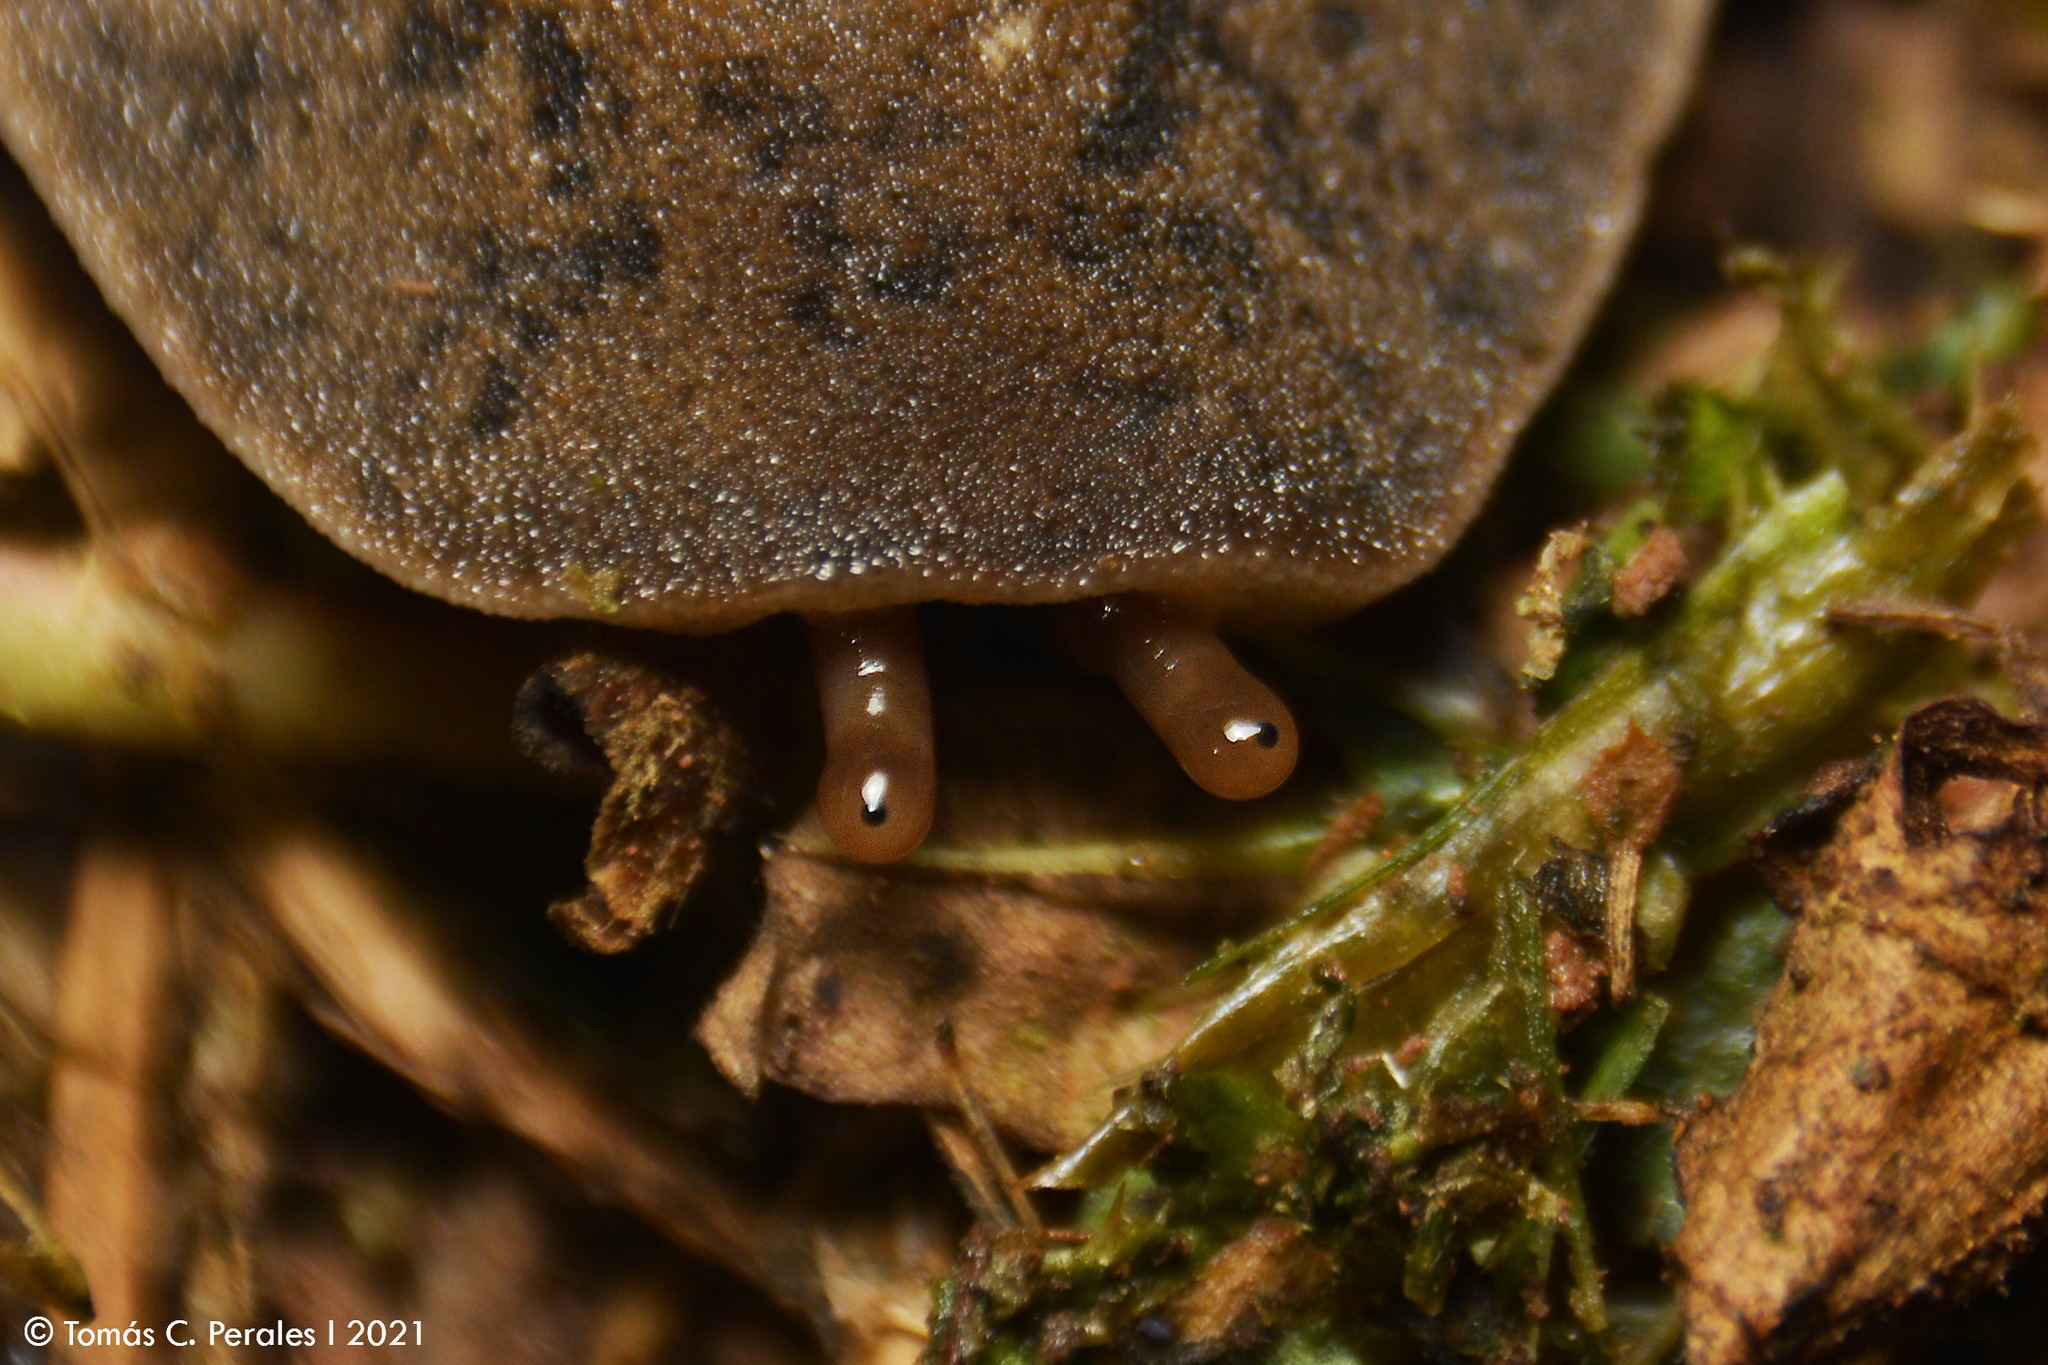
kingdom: Animalia
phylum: Mollusca
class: Gastropoda
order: Systellommatophora
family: Veronicellidae
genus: Phyllocaulis
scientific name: Phyllocaulis soleiformis
